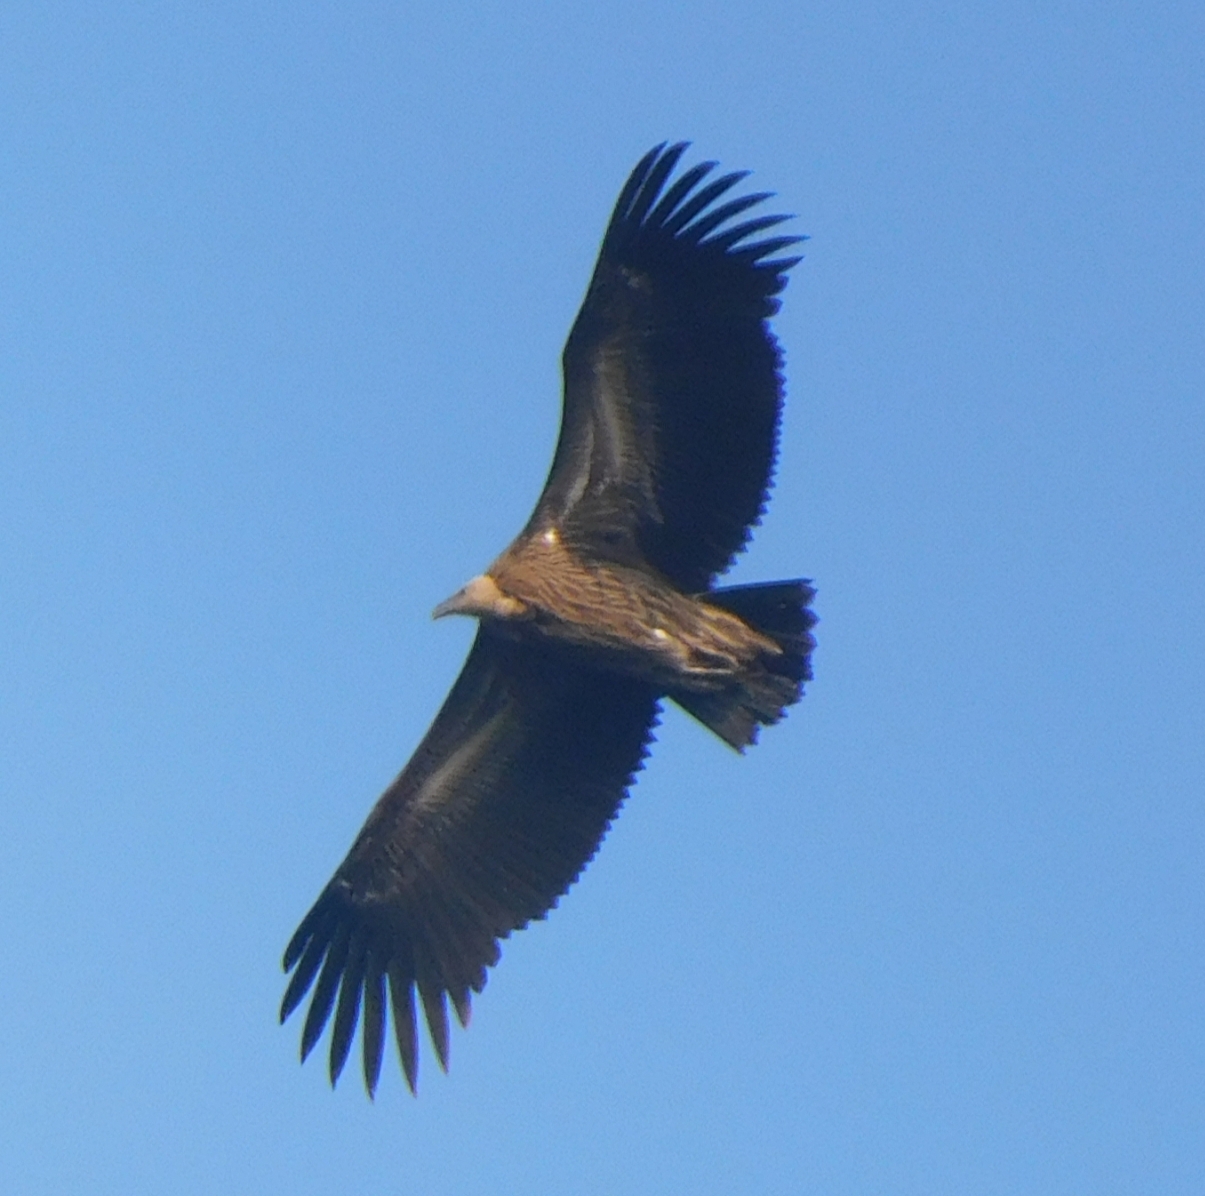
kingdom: Animalia
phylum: Chordata
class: Aves
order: Accipitriformes
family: Accipitridae
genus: Gyps
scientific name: Gyps himalayensis
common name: Himalayan griffon
